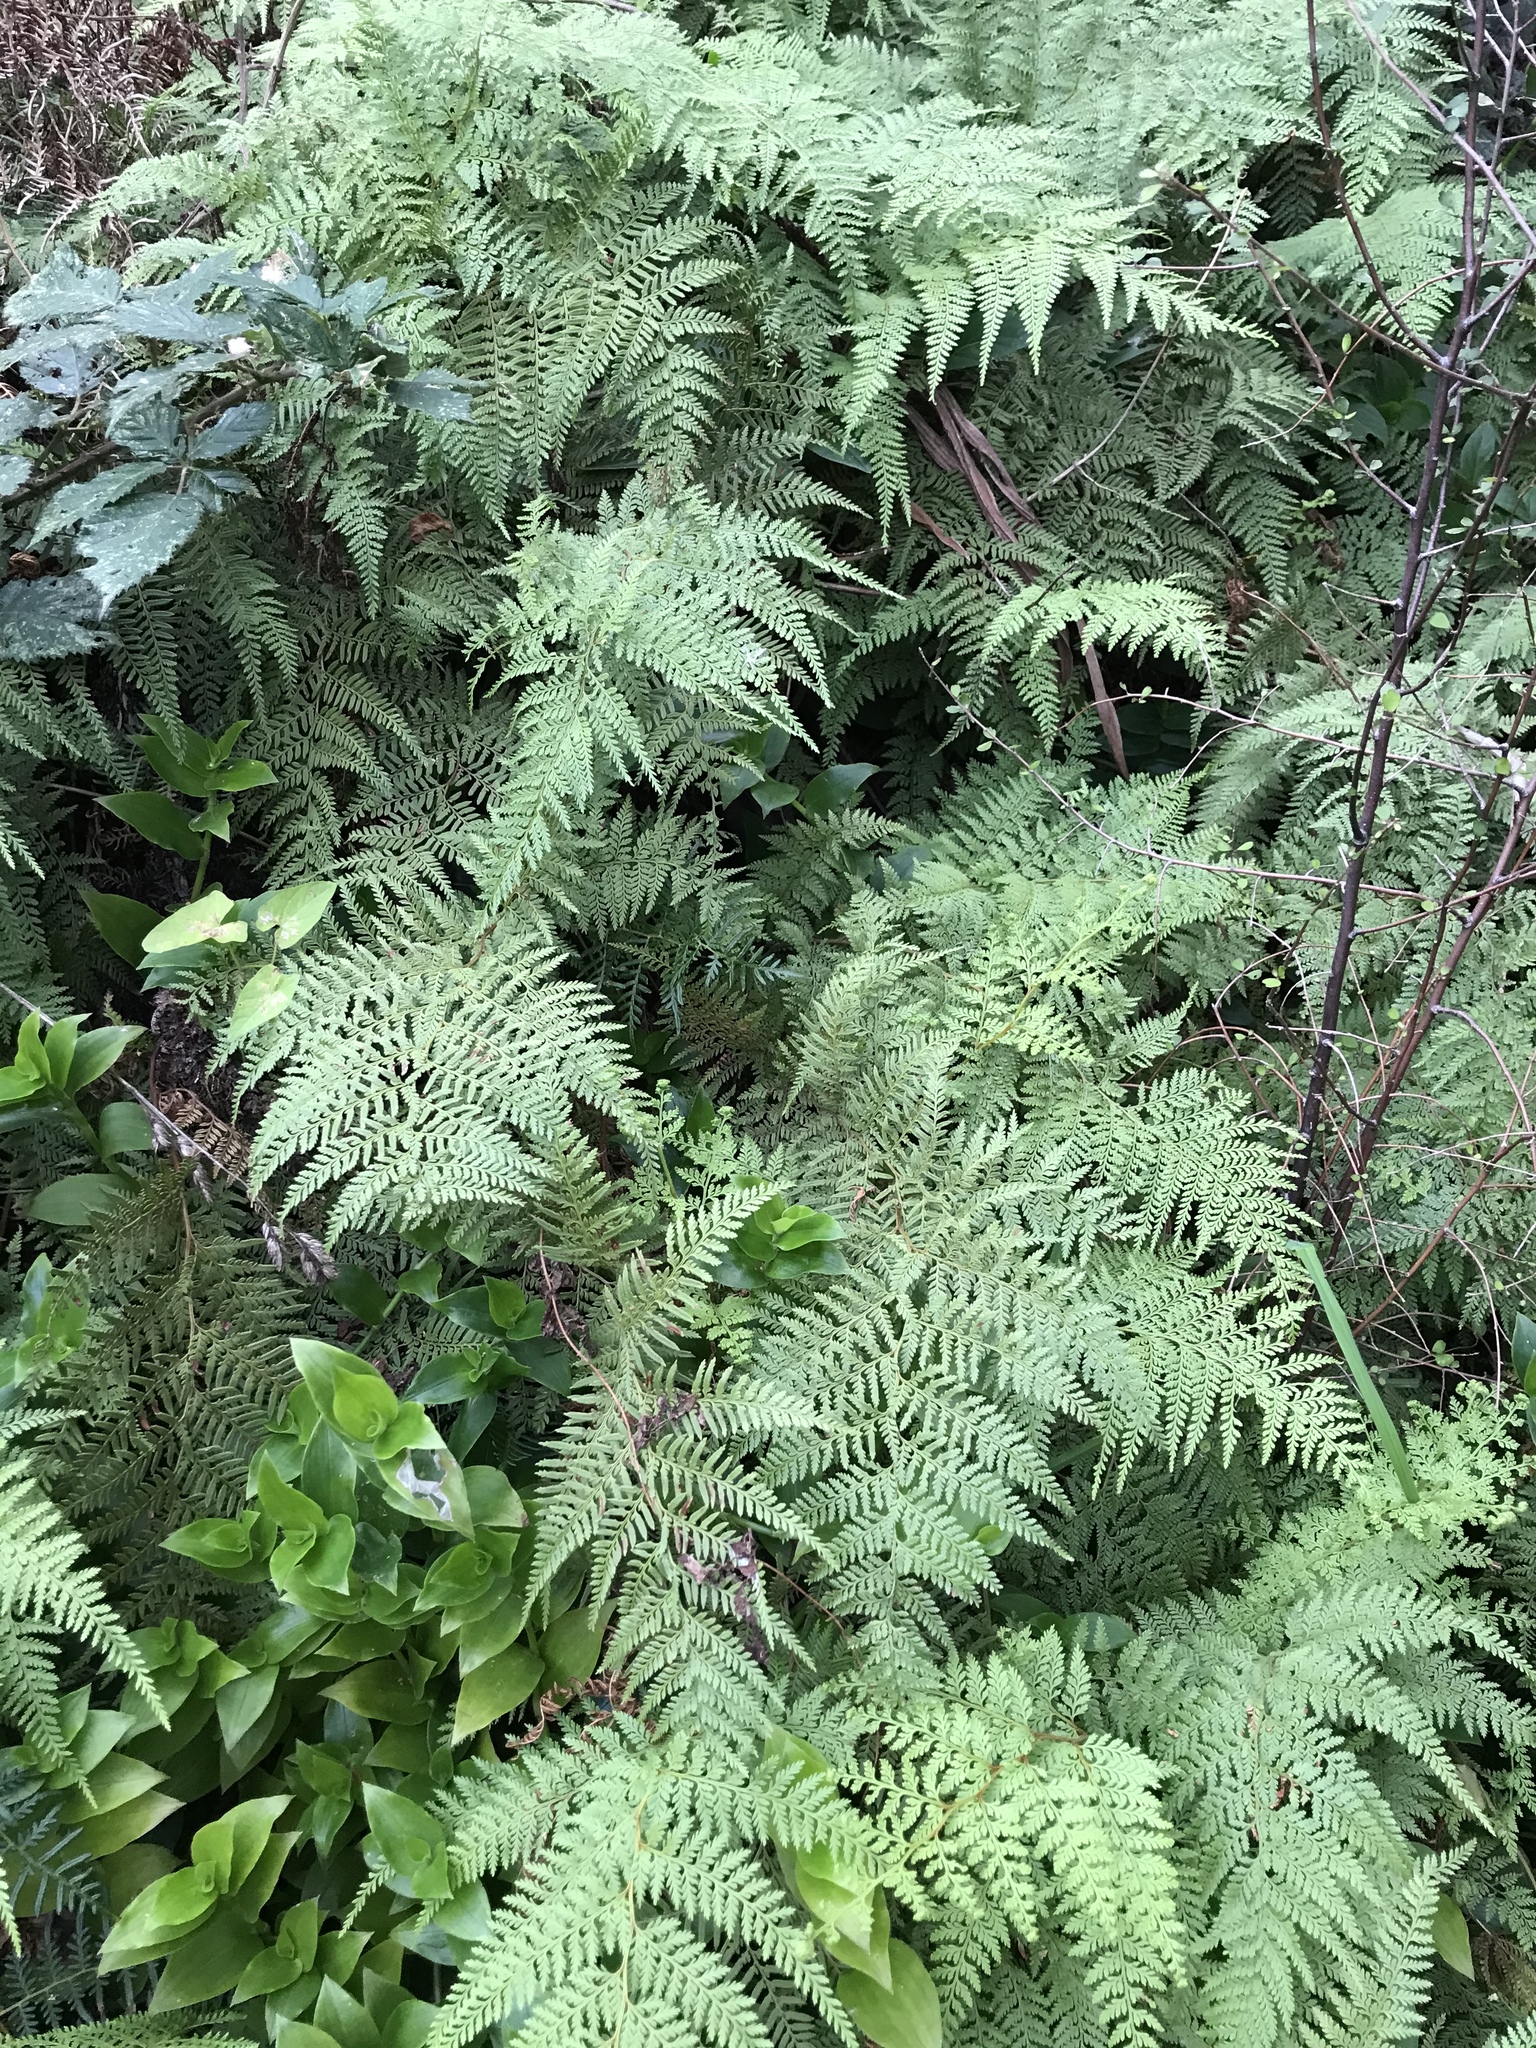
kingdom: Plantae
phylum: Tracheophyta
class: Polypodiopsida
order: Polypodiales
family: Dennstaedtiaceae
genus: Paesia
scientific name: Paesia scaberula
